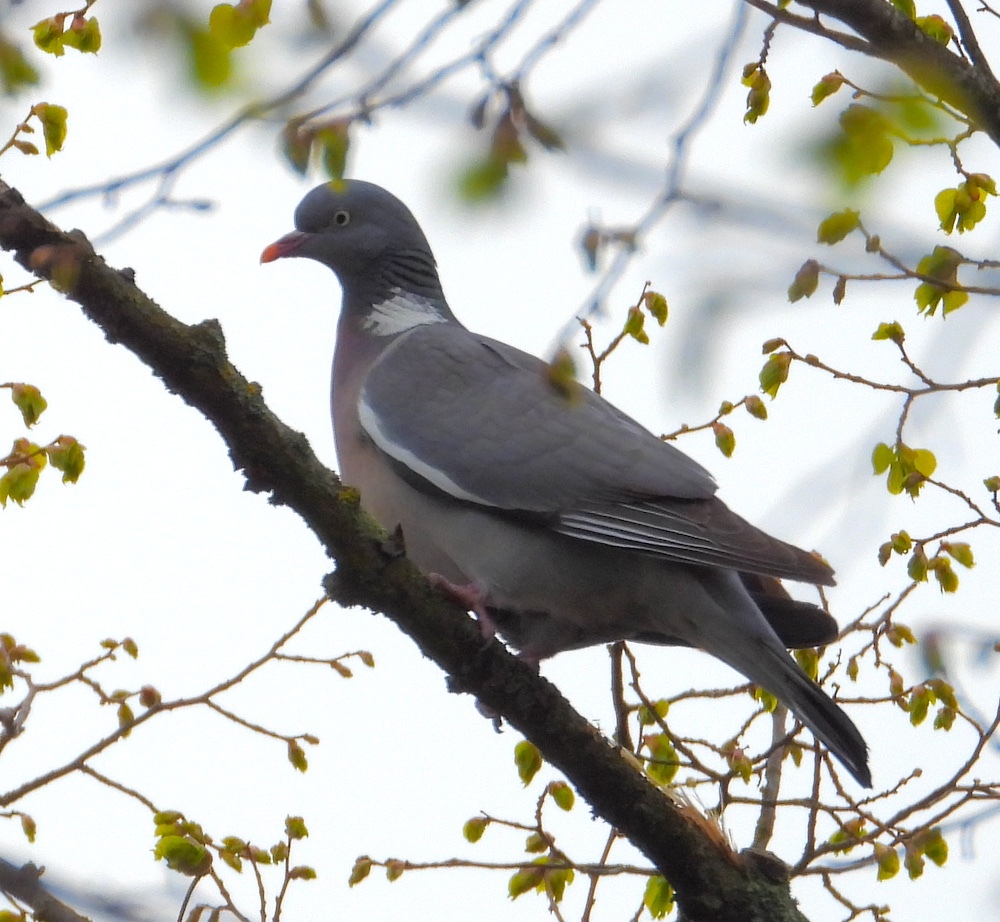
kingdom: Animalia
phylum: Chordata
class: Aves
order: Columbiformes
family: Columbidae
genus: Columba
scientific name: Columba palumbus
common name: Common wood pigeon
